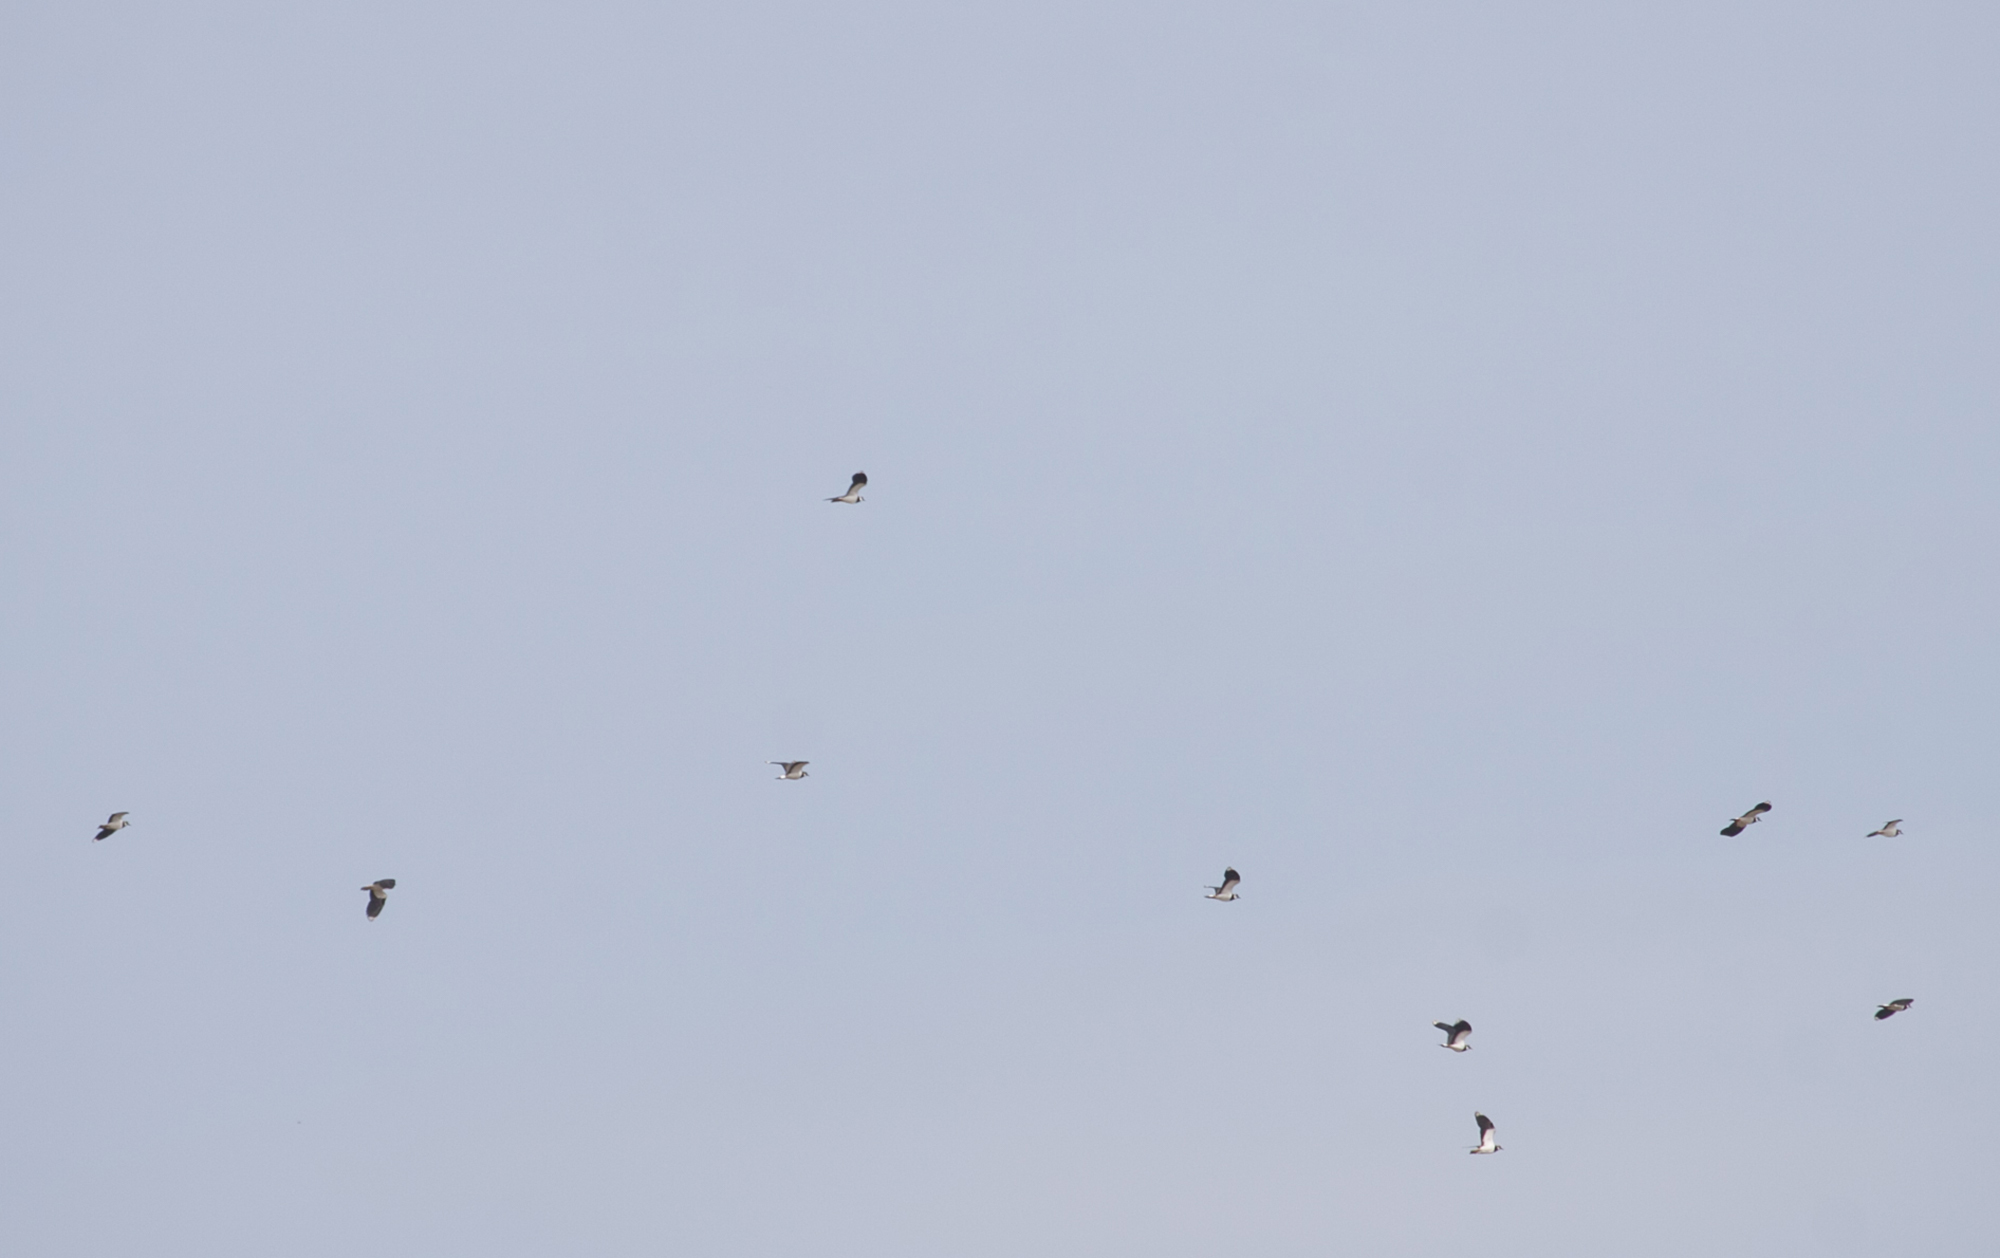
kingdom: Animalia
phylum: Chordata
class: Aves
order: Charadriiformes
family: Charadriidae
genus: Vanellus
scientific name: Vanellus vanellus
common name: Northern lapwing
